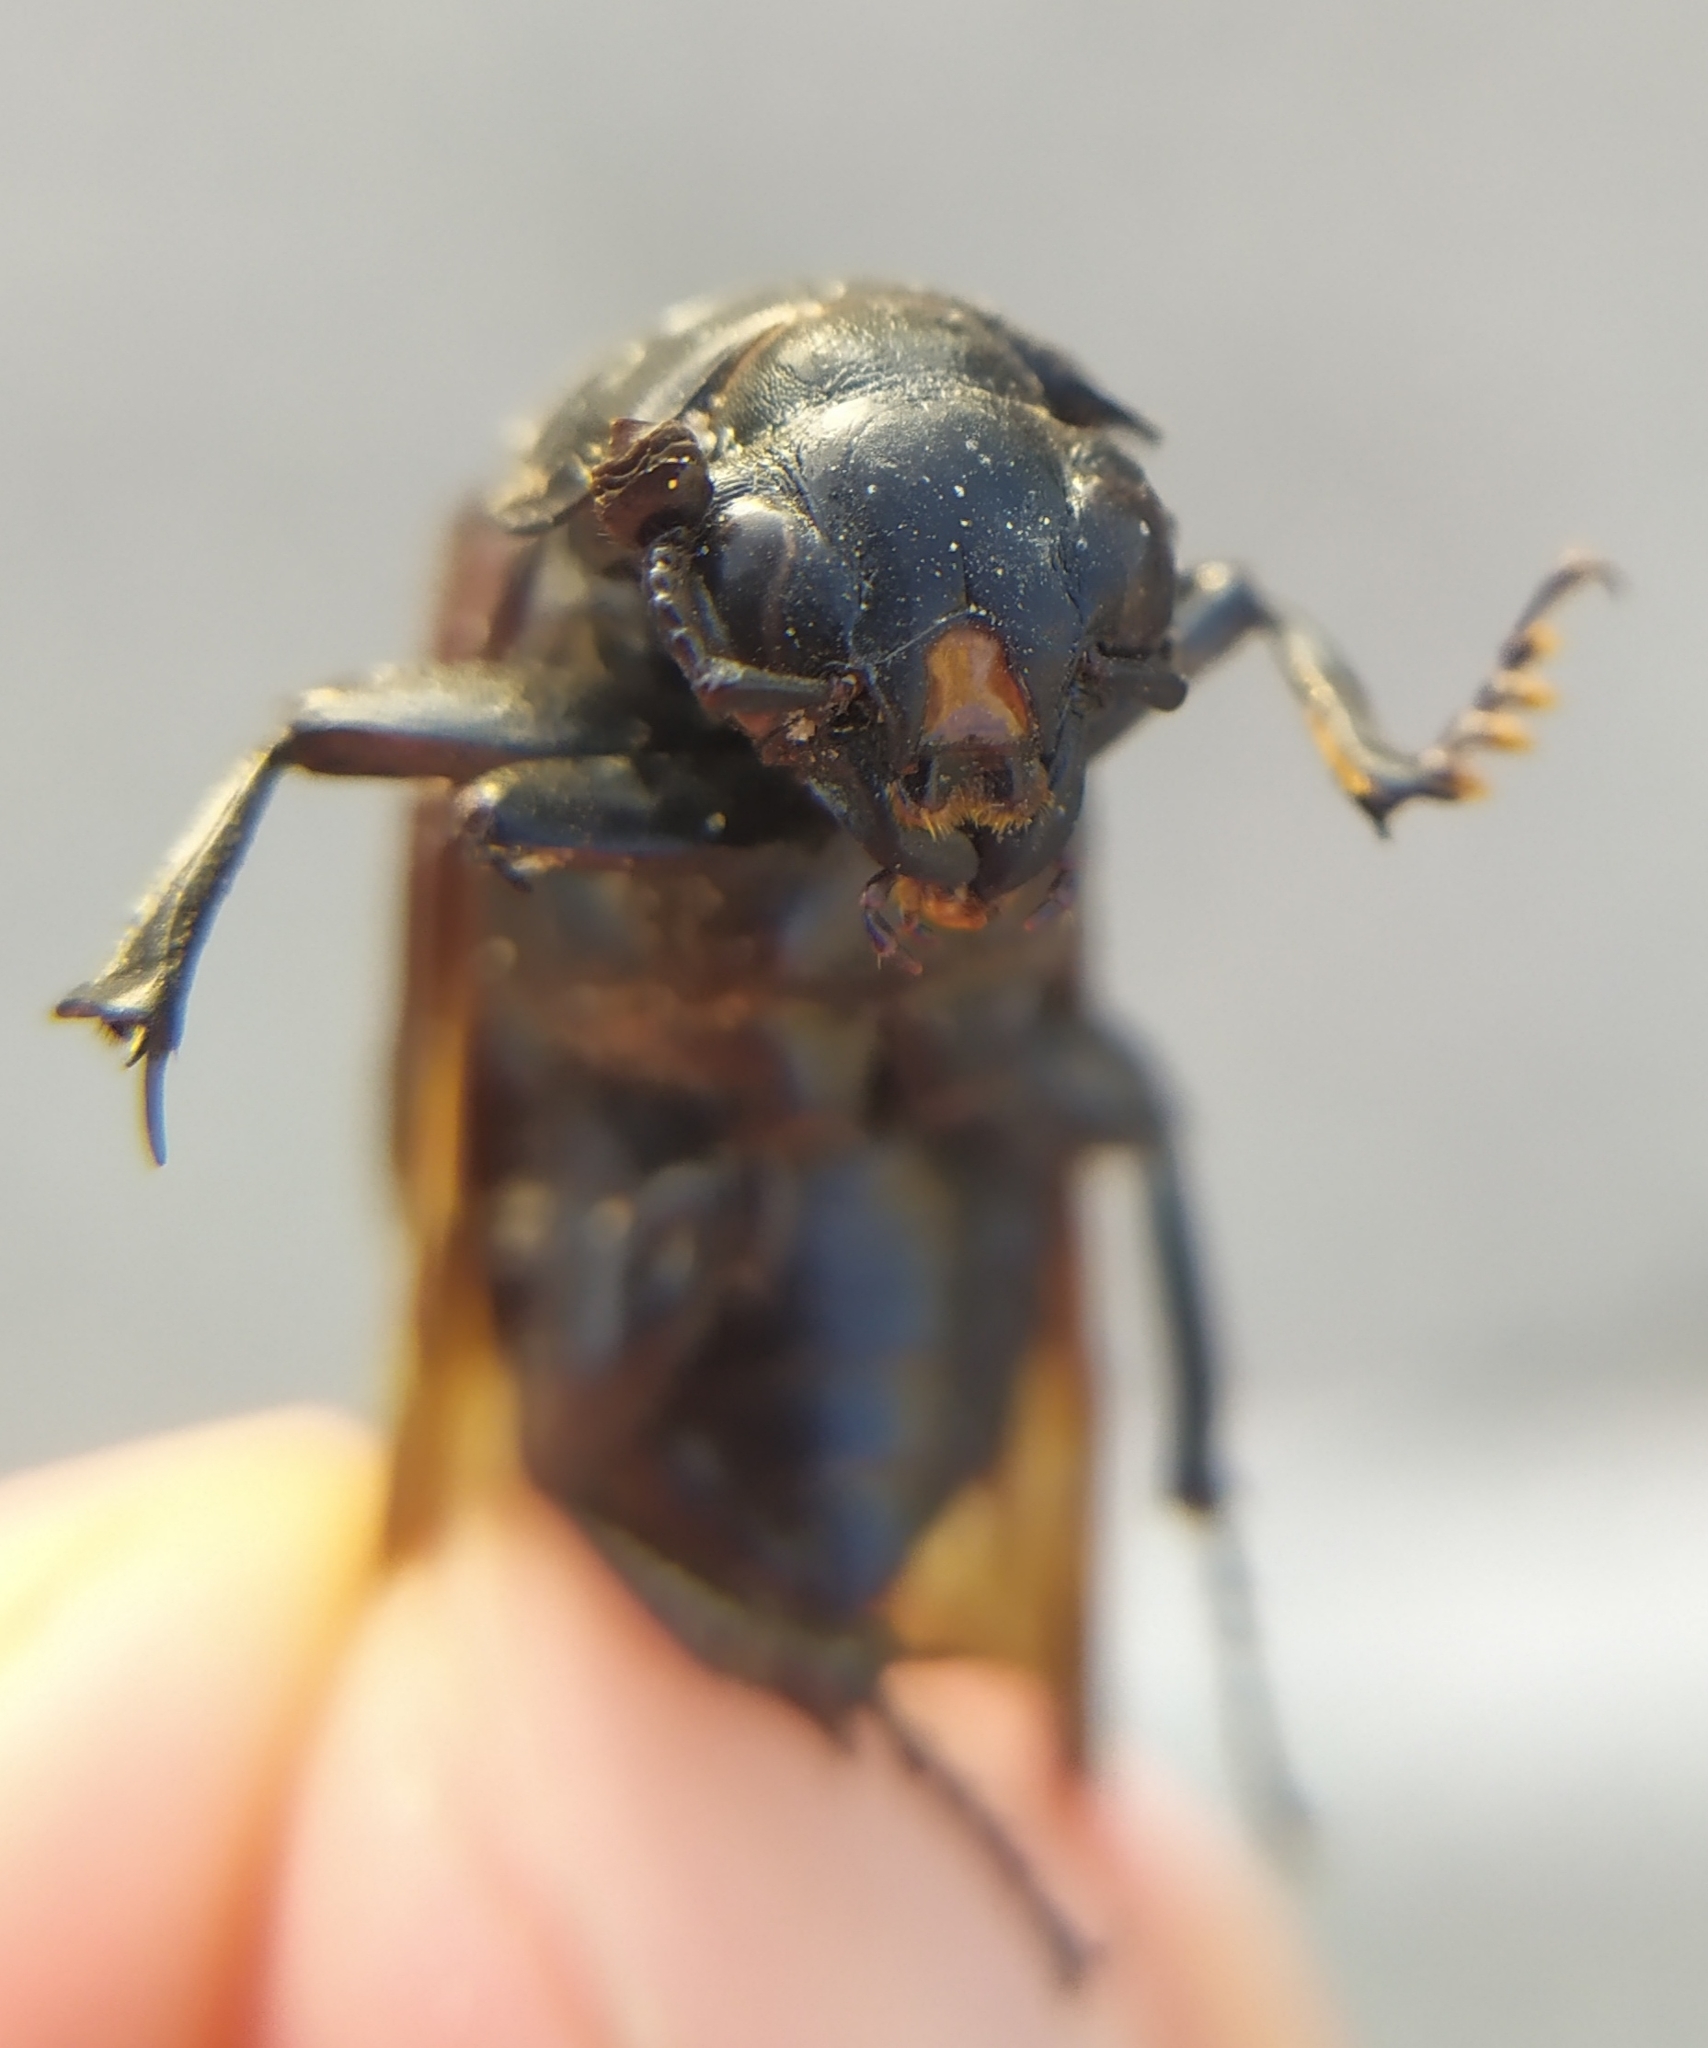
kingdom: Animalia
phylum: Arthropoda
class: Insecta
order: Coleoptera
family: Staphylinidae
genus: Nicrophorus
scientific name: Nicrophorus germanicus
